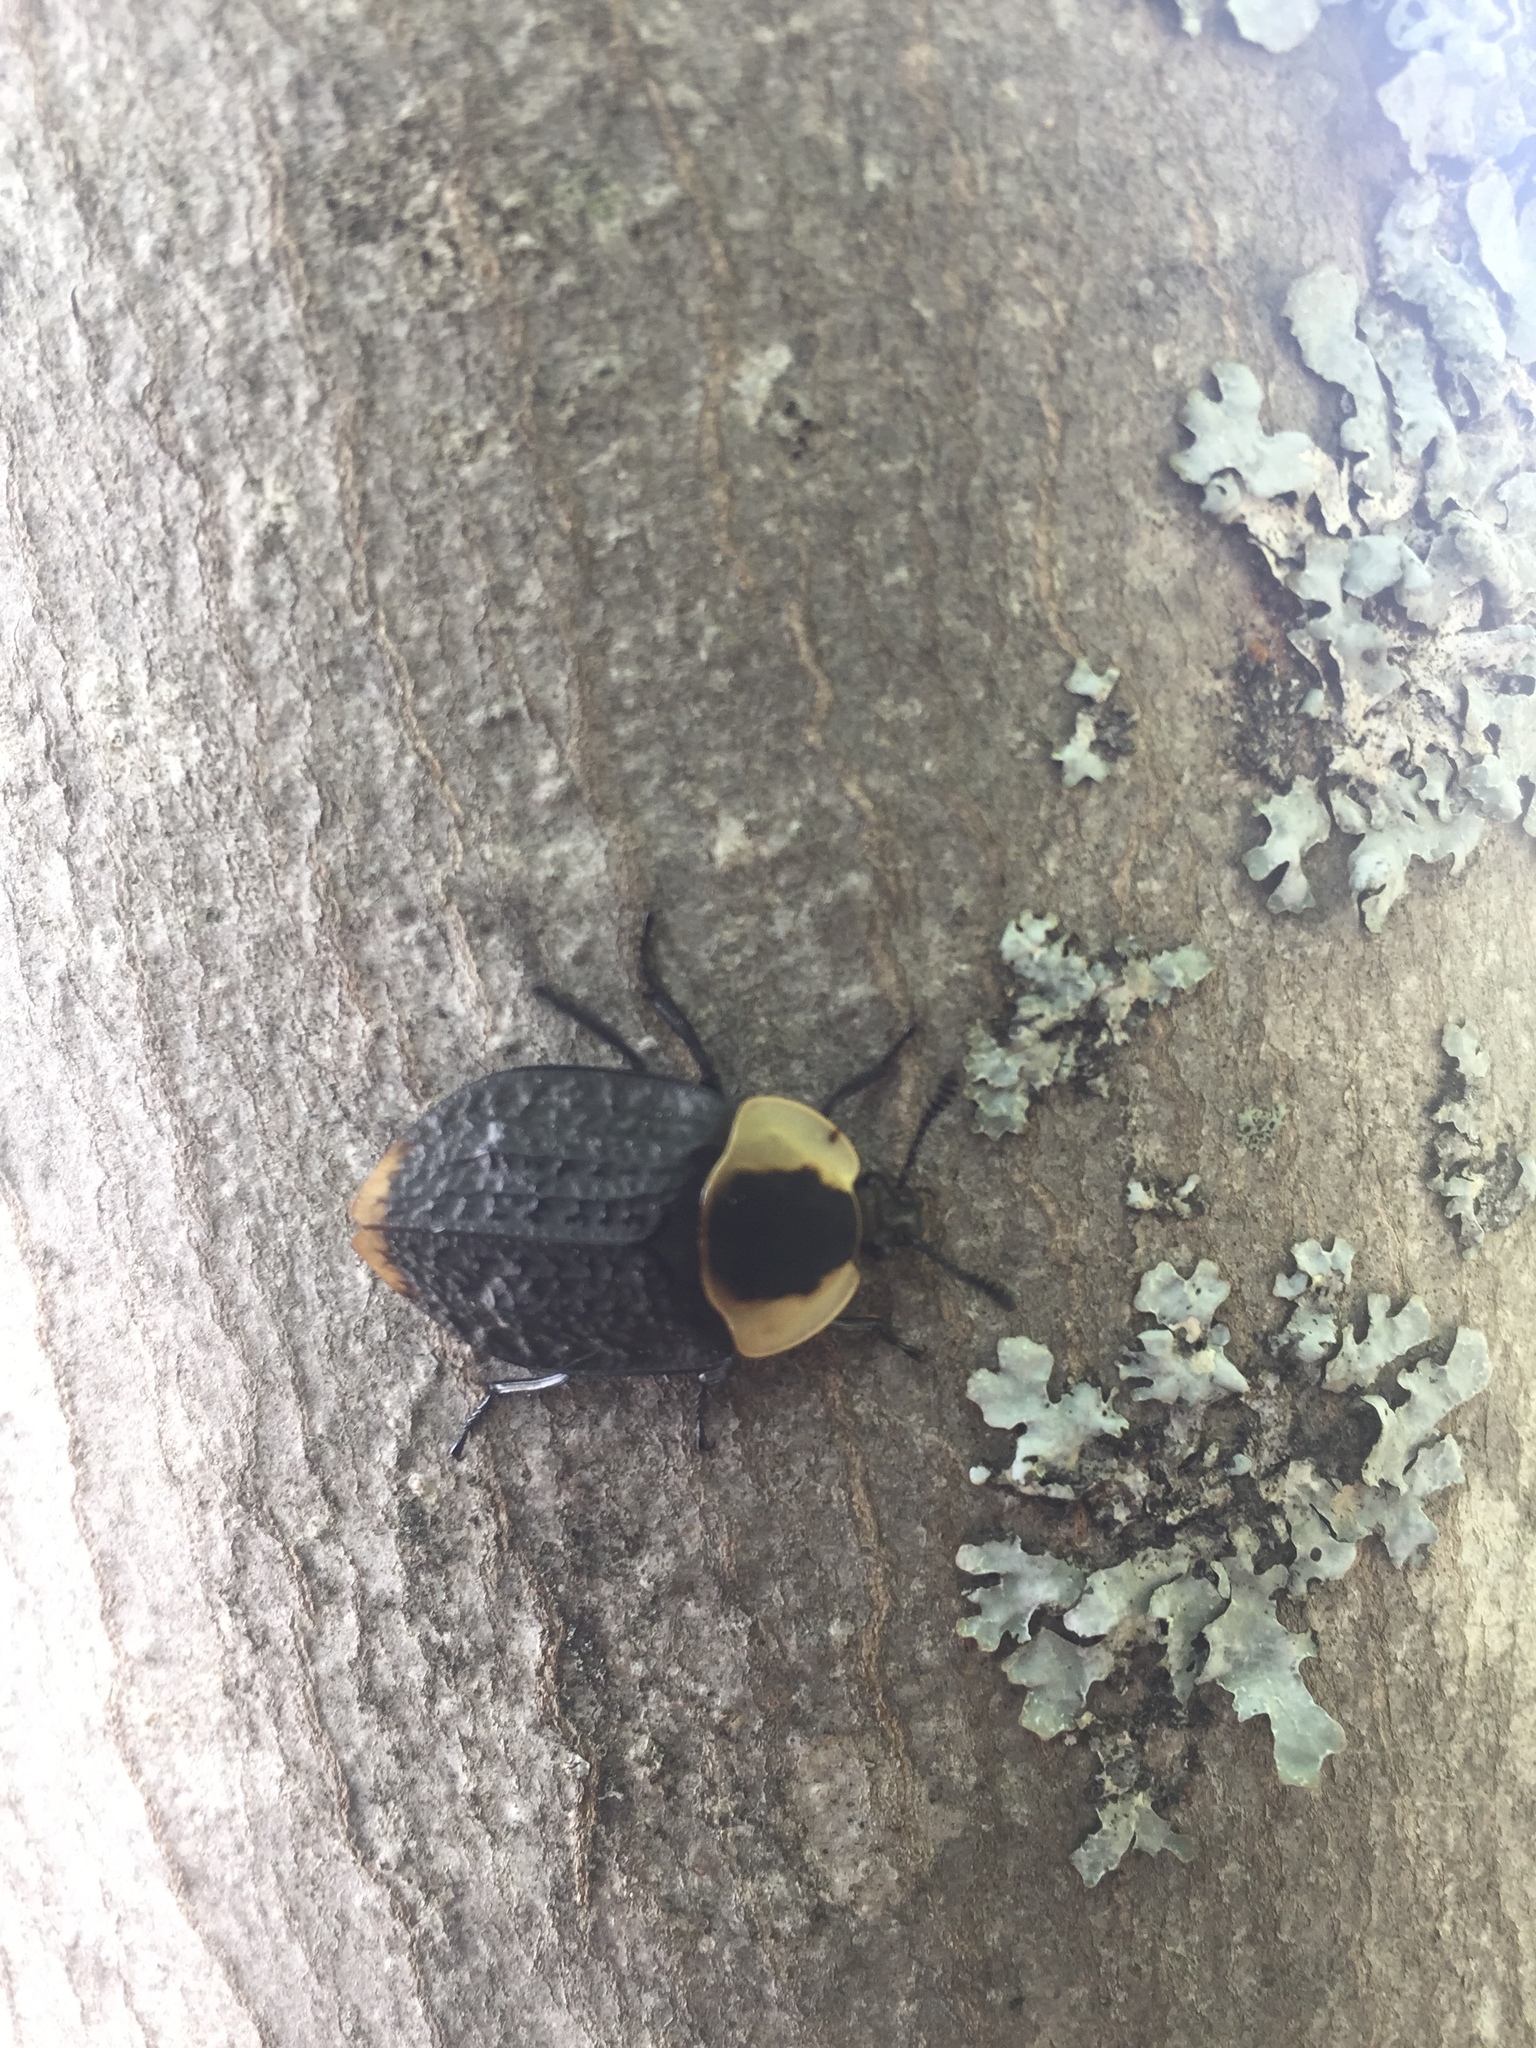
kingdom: Animalia
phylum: Arthropoda
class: Insecta
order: Coleoptera
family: Staphylinidae
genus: Necrophila
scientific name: Necrophila americana
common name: American carrion beetle
